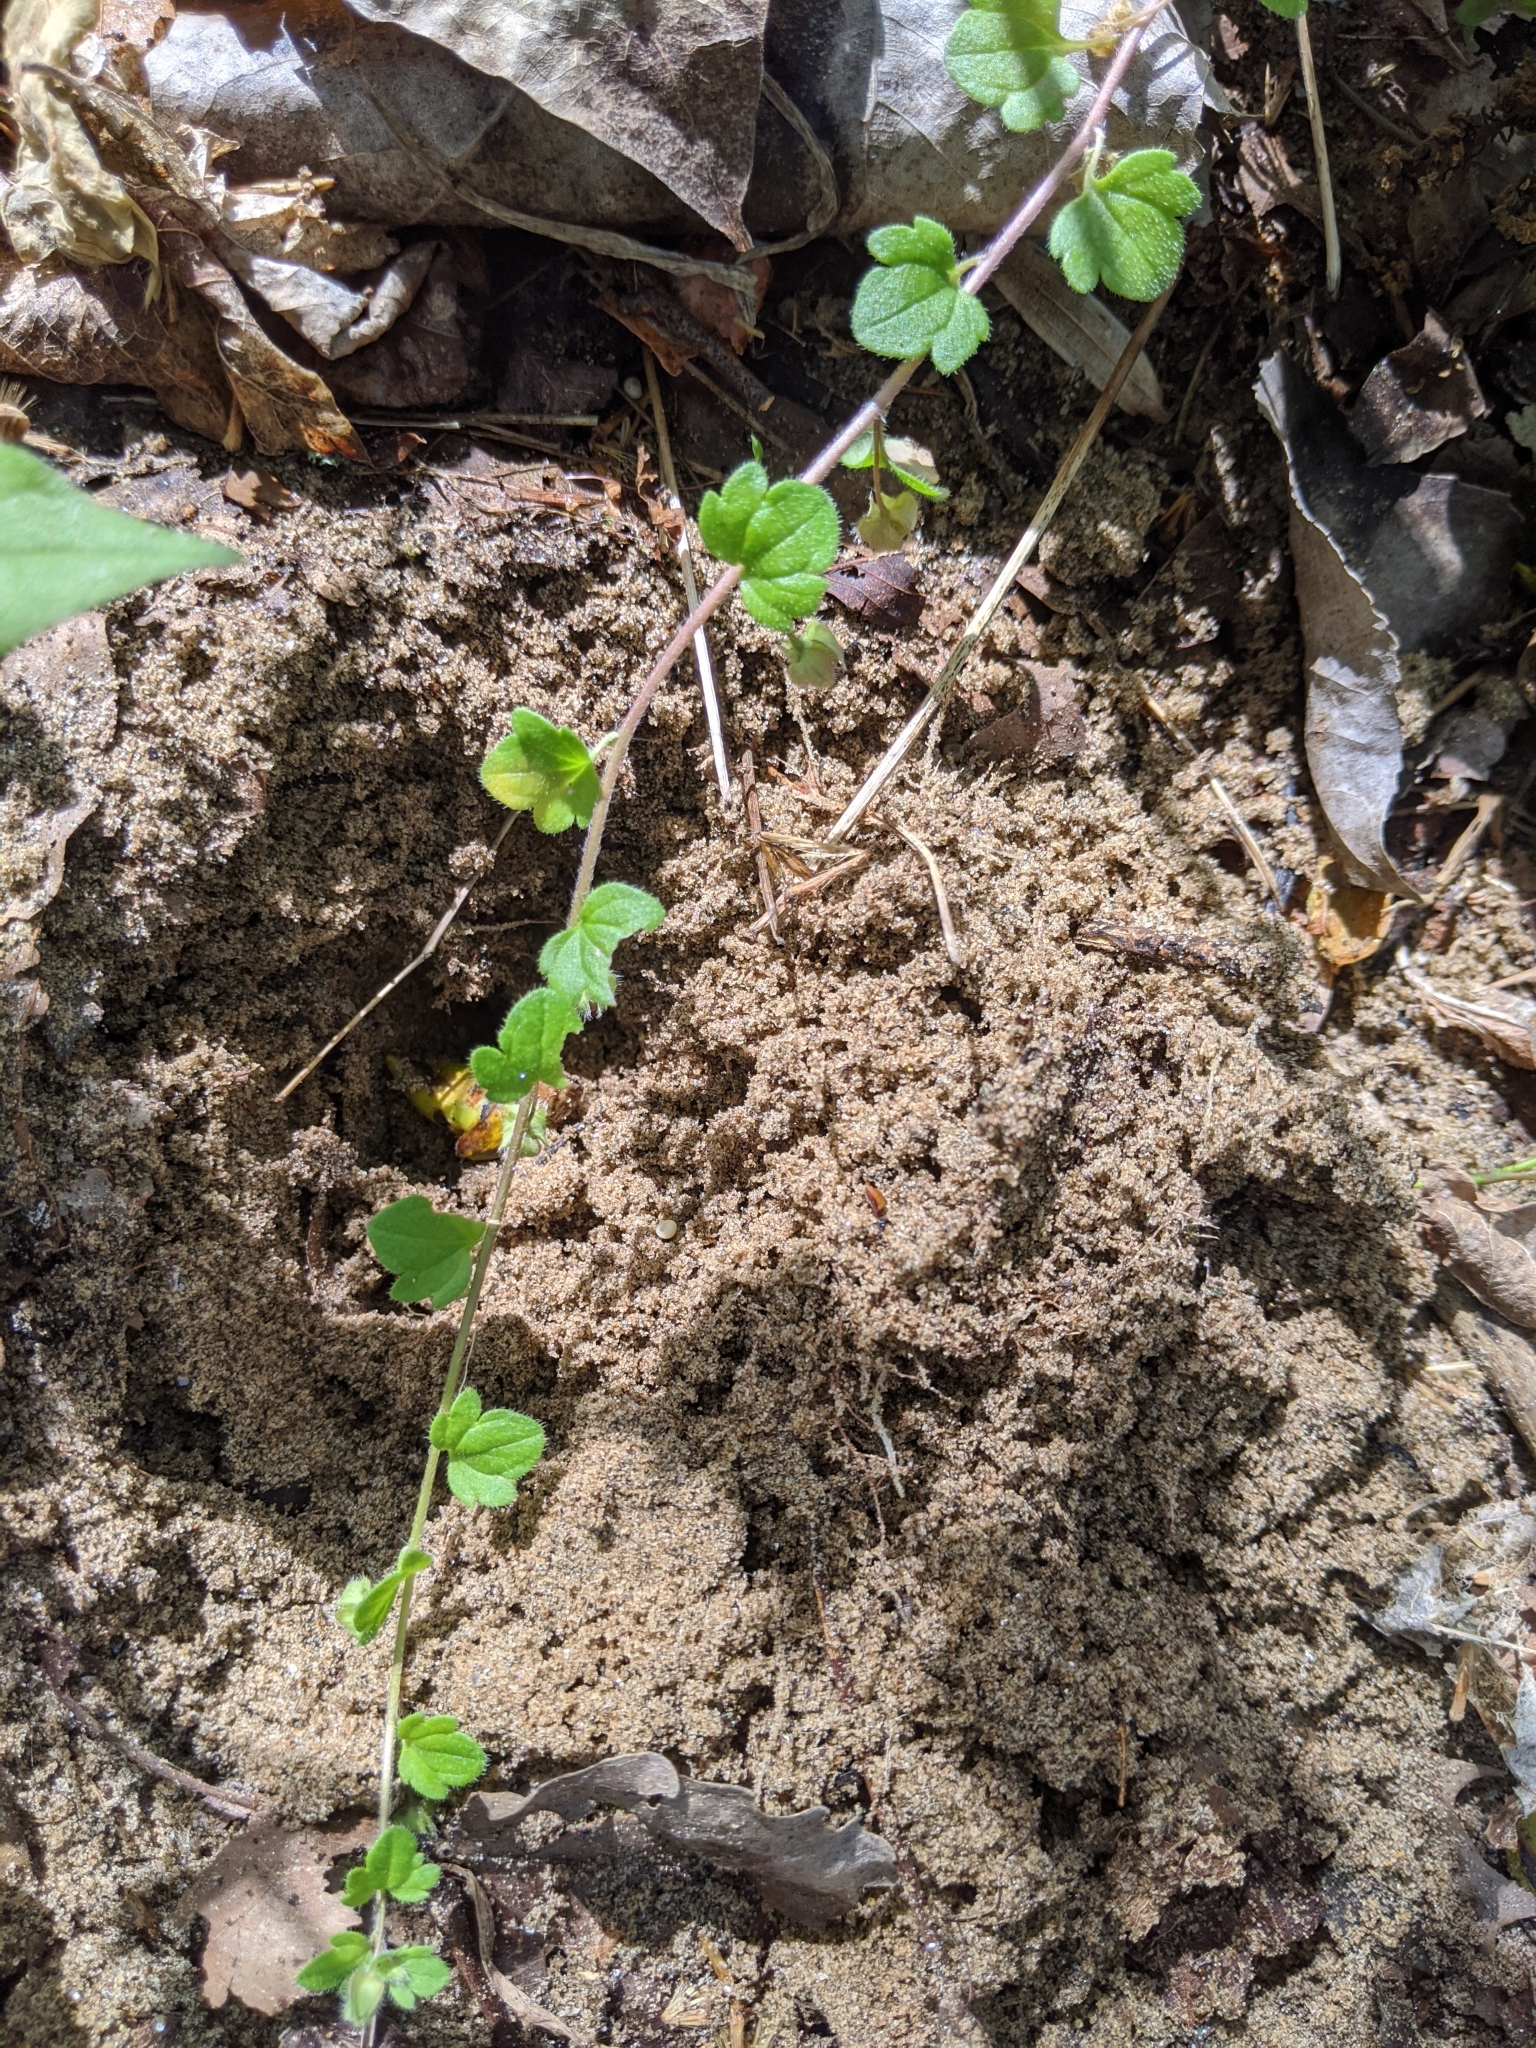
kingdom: Plantae
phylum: Tracheophyta
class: Magnoliopsida
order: Lamiales
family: Plantaginaceae
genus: Veronica
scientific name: Veronica hederifolia
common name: Ivy-leaved speedwell
